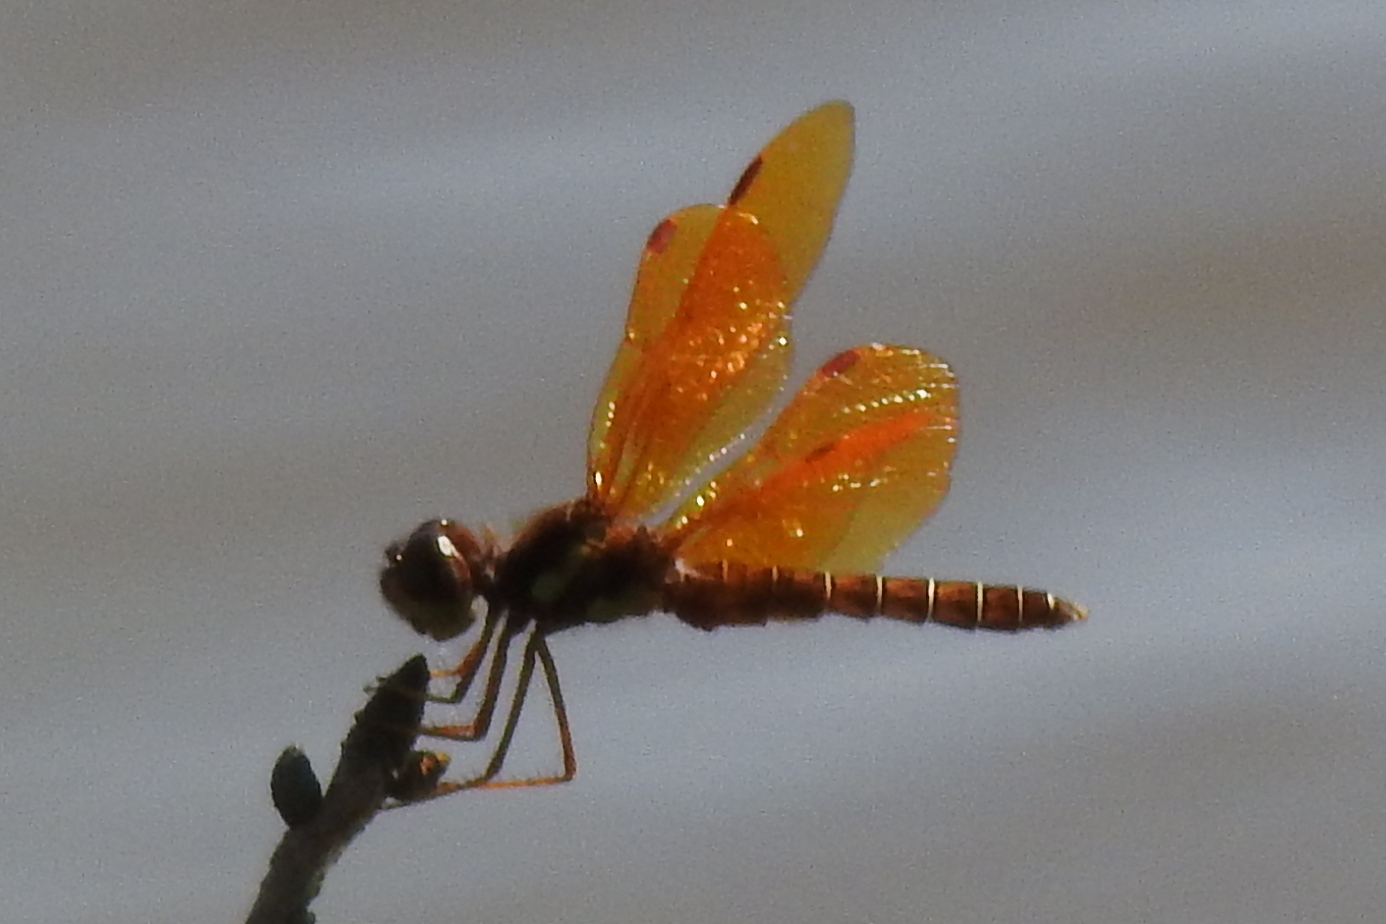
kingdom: Animalia
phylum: Arthropoda
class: Insecta
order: Odonata
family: Libellulidae
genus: Perithemis
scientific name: Perithemis tenera
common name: Eastern amberwing
